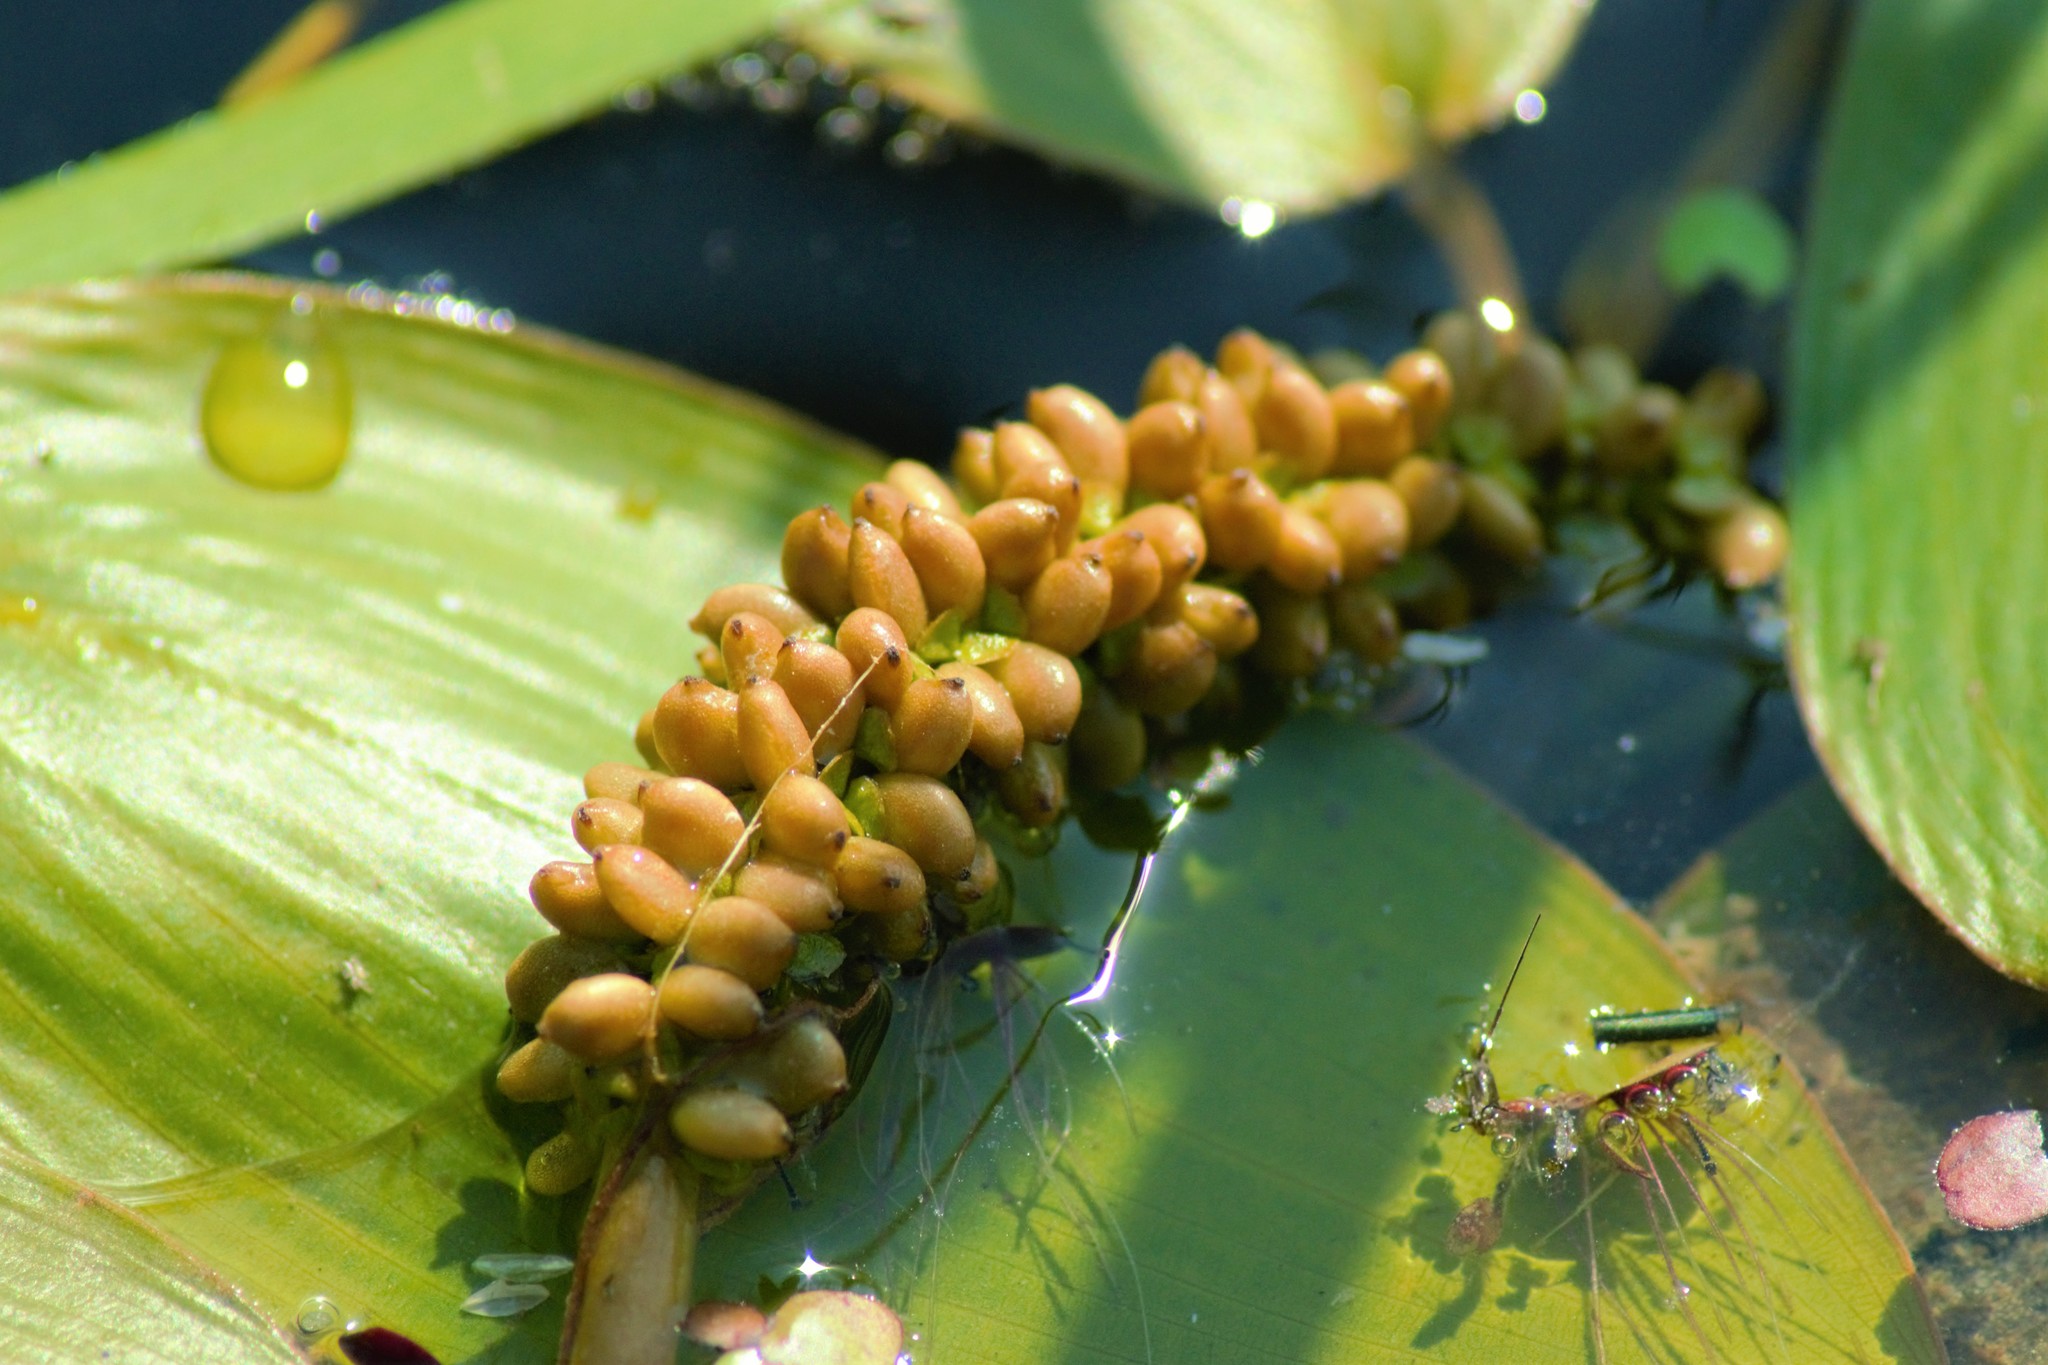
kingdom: Plantae
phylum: Tracheophyta
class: Liliopsida
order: Alismatales
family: Potamogetonaceae
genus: Potamogeton
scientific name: Potamogeton natans
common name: Broad-leaved pondweed
